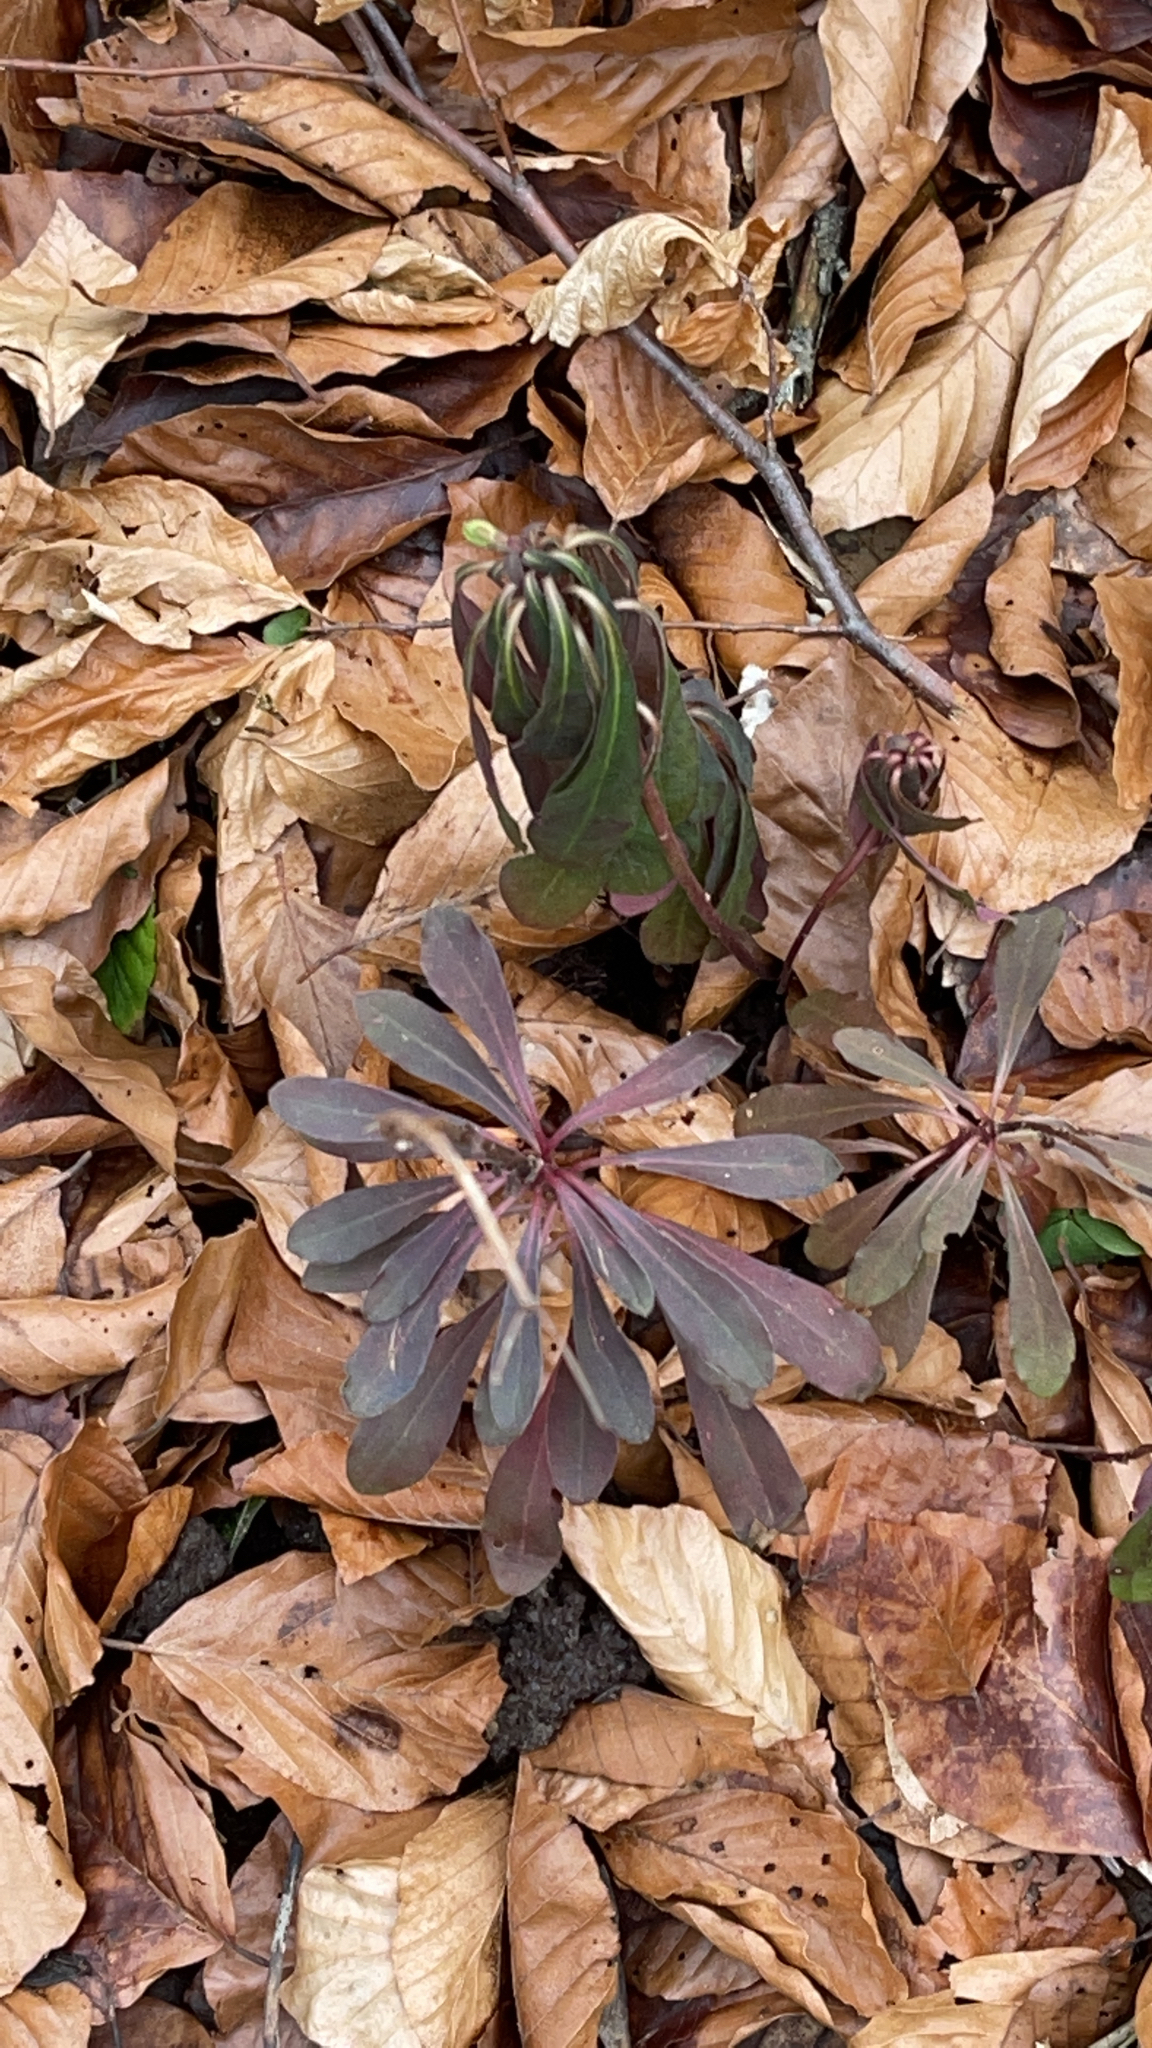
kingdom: Plantae
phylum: Tracheophyta
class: Magnoliopsida
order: Malpighiales
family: Euphorbiaceae
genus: Euphorbia
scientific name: Euphorbia amygdaloides
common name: Wood spurge
